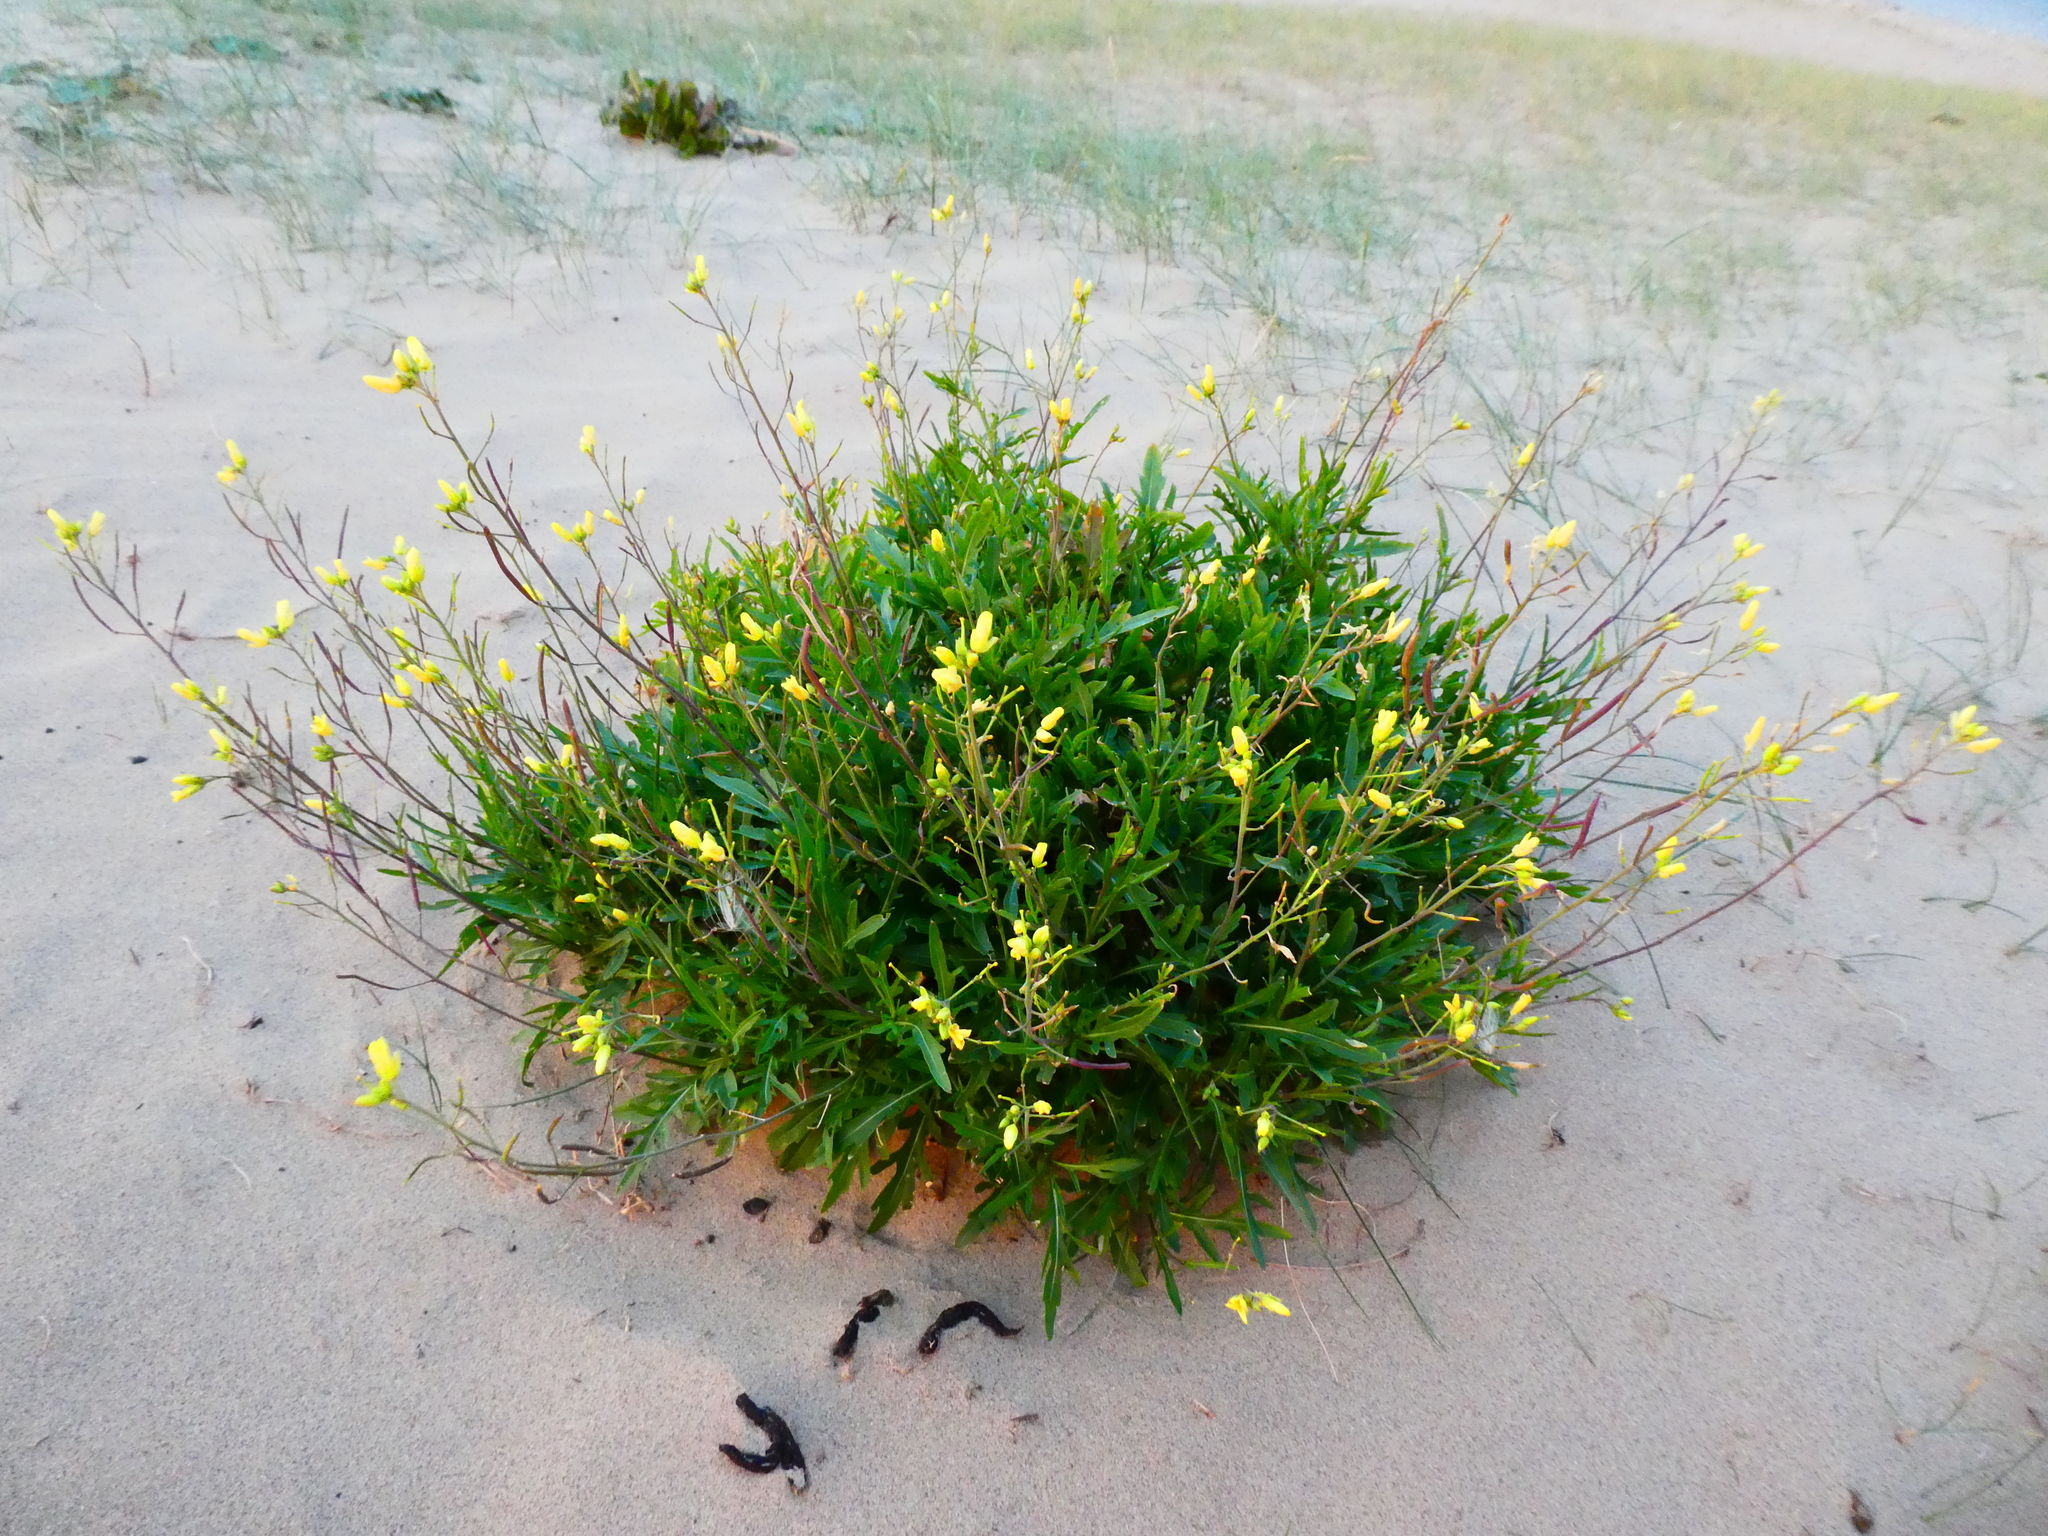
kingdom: Plantae
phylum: Tracheophyta
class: Magnoliopsida
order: Brassicales
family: Brassicaceae
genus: Diplotaxis
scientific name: Diplotaxis tenuifolia
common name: Perennial wall-rocket
